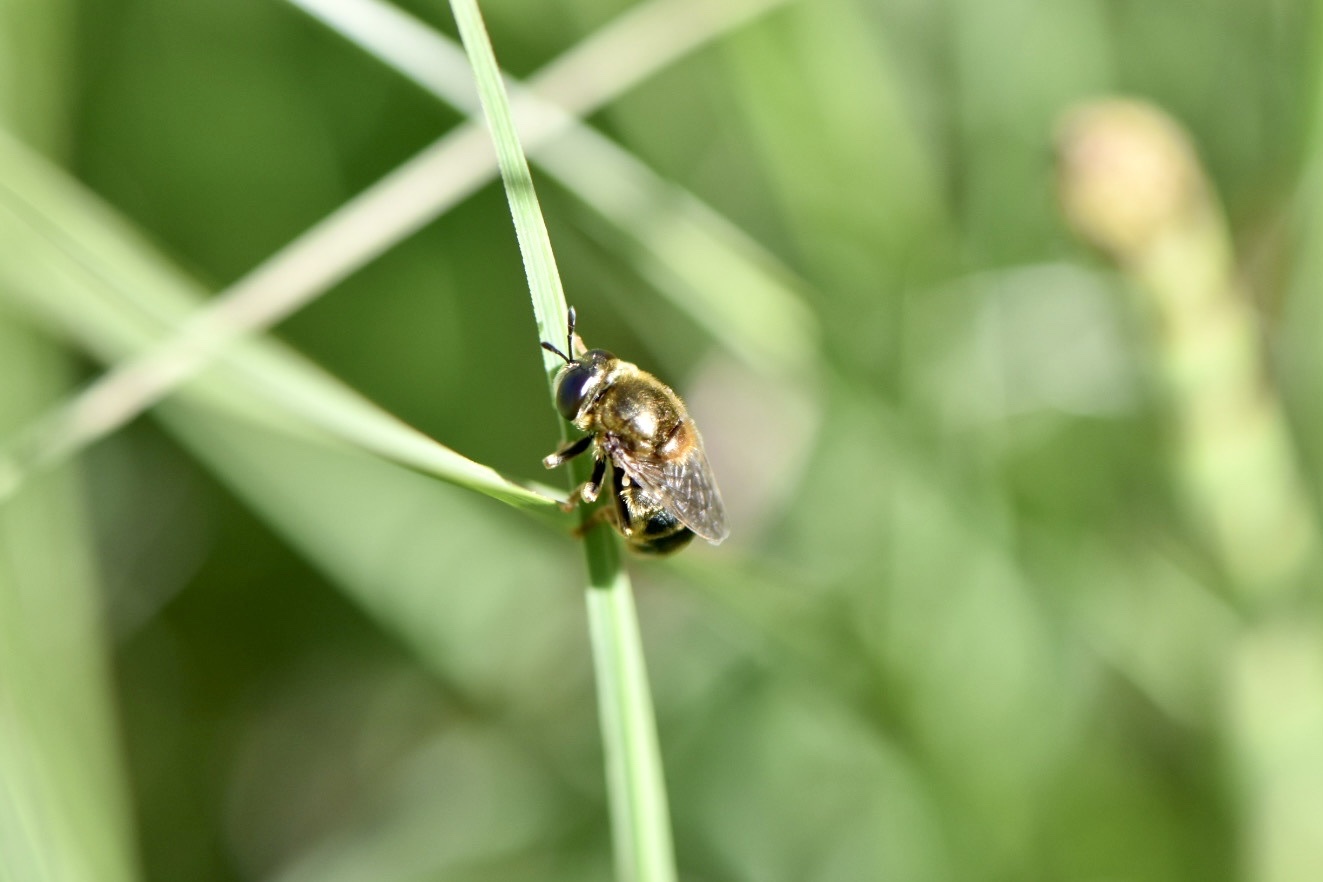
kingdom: Animalia
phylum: Arthropoda
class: Insecta
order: Diptera
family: Syrphidae
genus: Microdon
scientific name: Microdon myrmicae
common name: Bog ant fly
